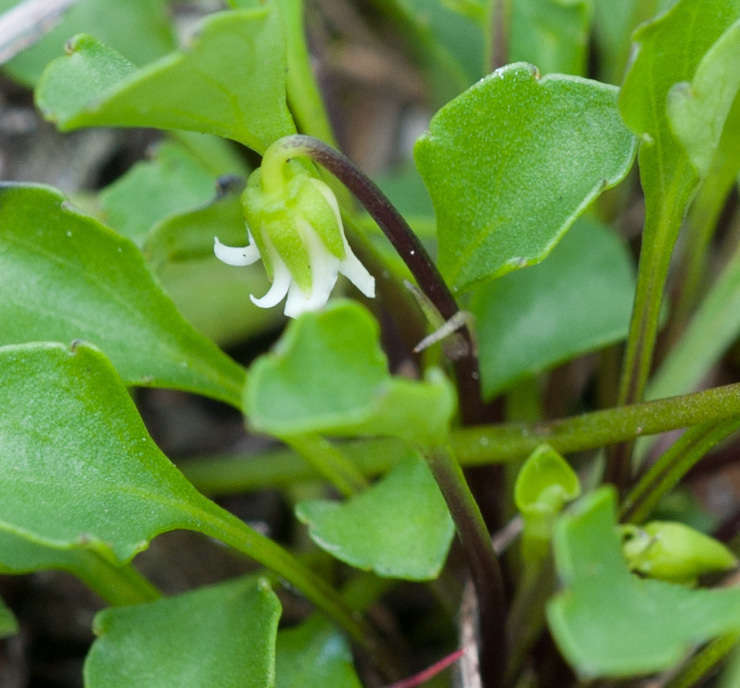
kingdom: Plantae
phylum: Tracheophyta
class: Magnoliopsida
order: Malpighiales
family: Violaceae
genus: Viola
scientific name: Viola cleistogamoides
